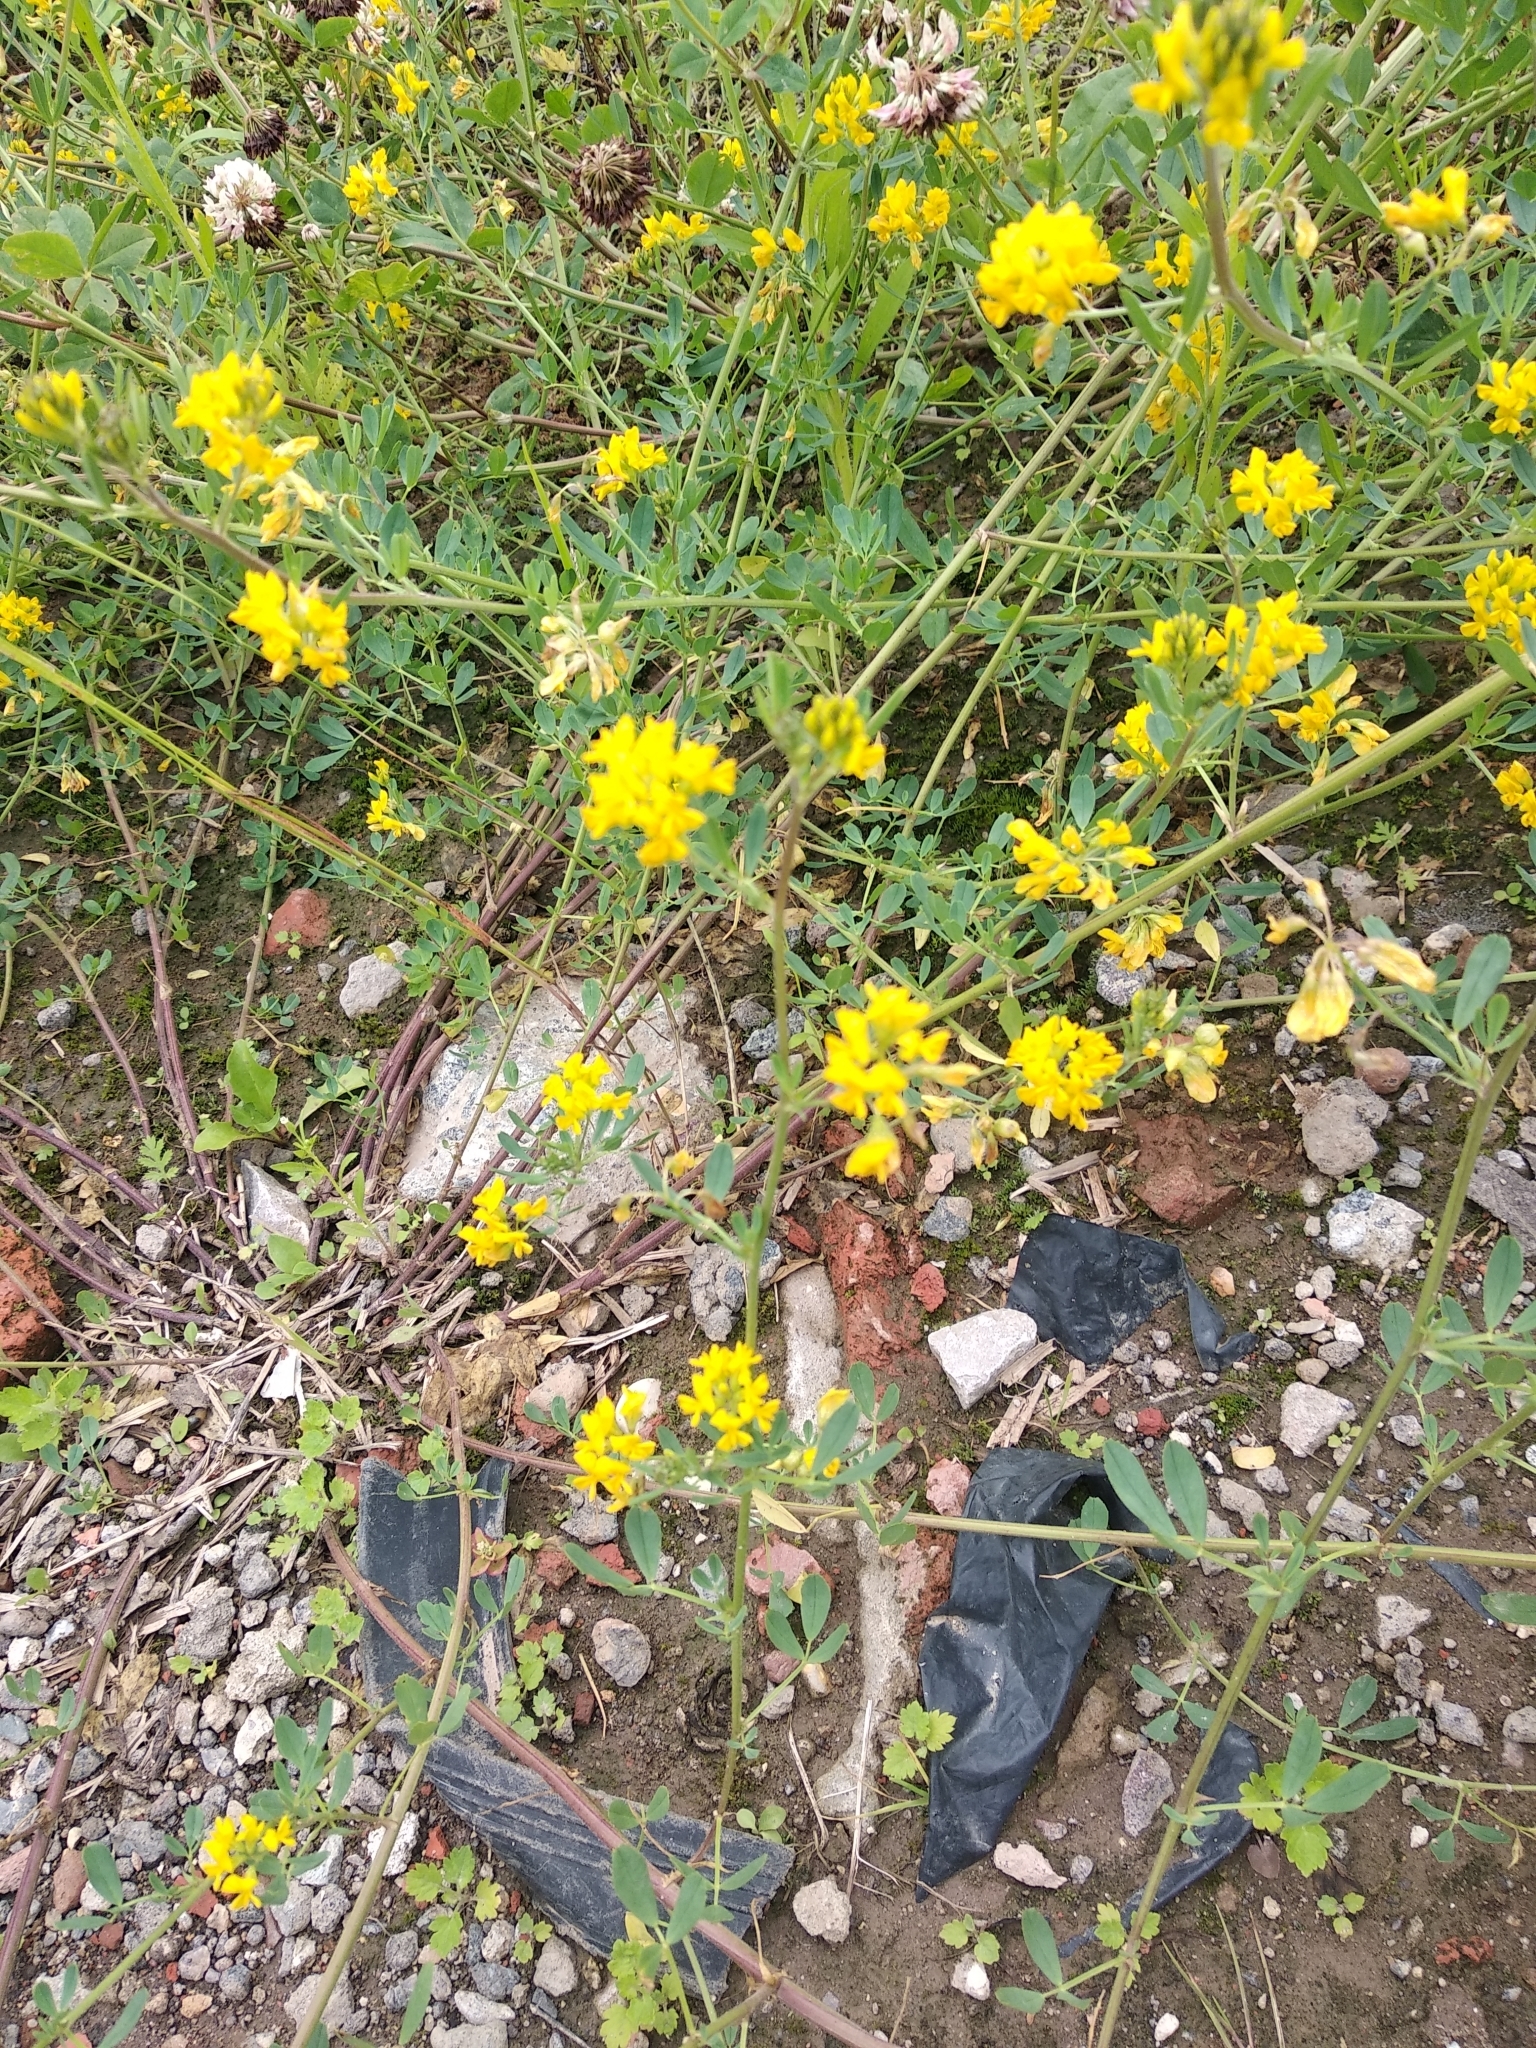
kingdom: Plantae
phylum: Tracheophyta
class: Magnoliopsida
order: Fabales
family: Fabaceae
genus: Medicago
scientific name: Medicago falcata
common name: Sickle medick
